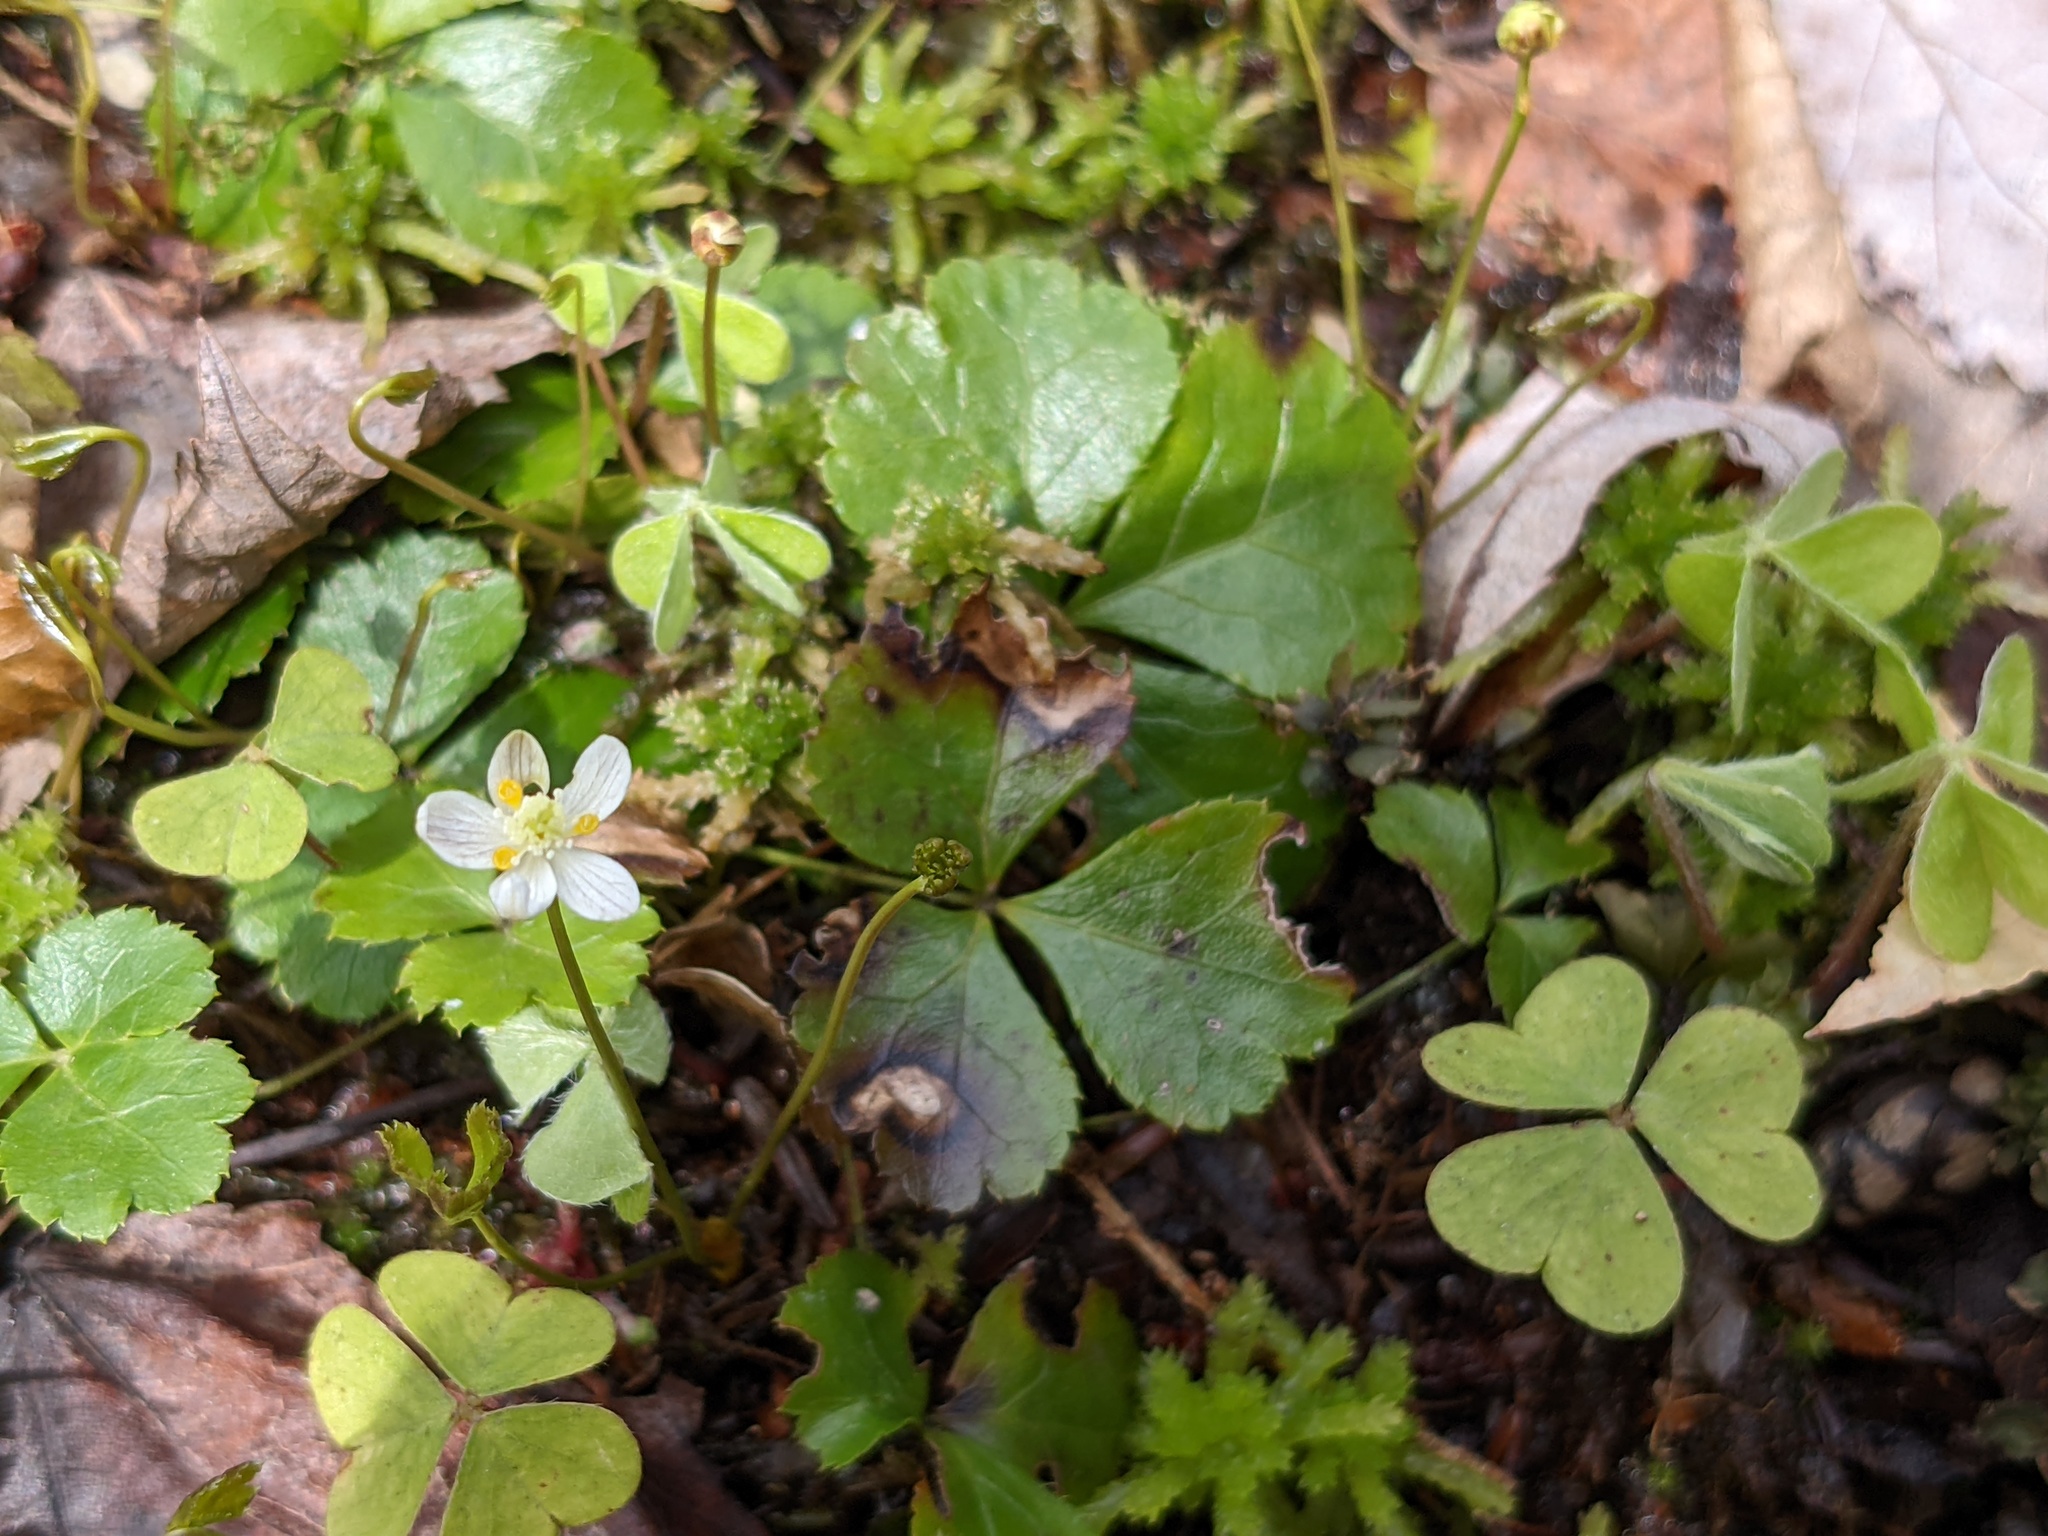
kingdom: Plantae
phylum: Tracheophyta
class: Magnoliopsida
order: Ranunculales
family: Ranunculaceae
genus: Coptis
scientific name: Coptis trifolia
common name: Canker-root
